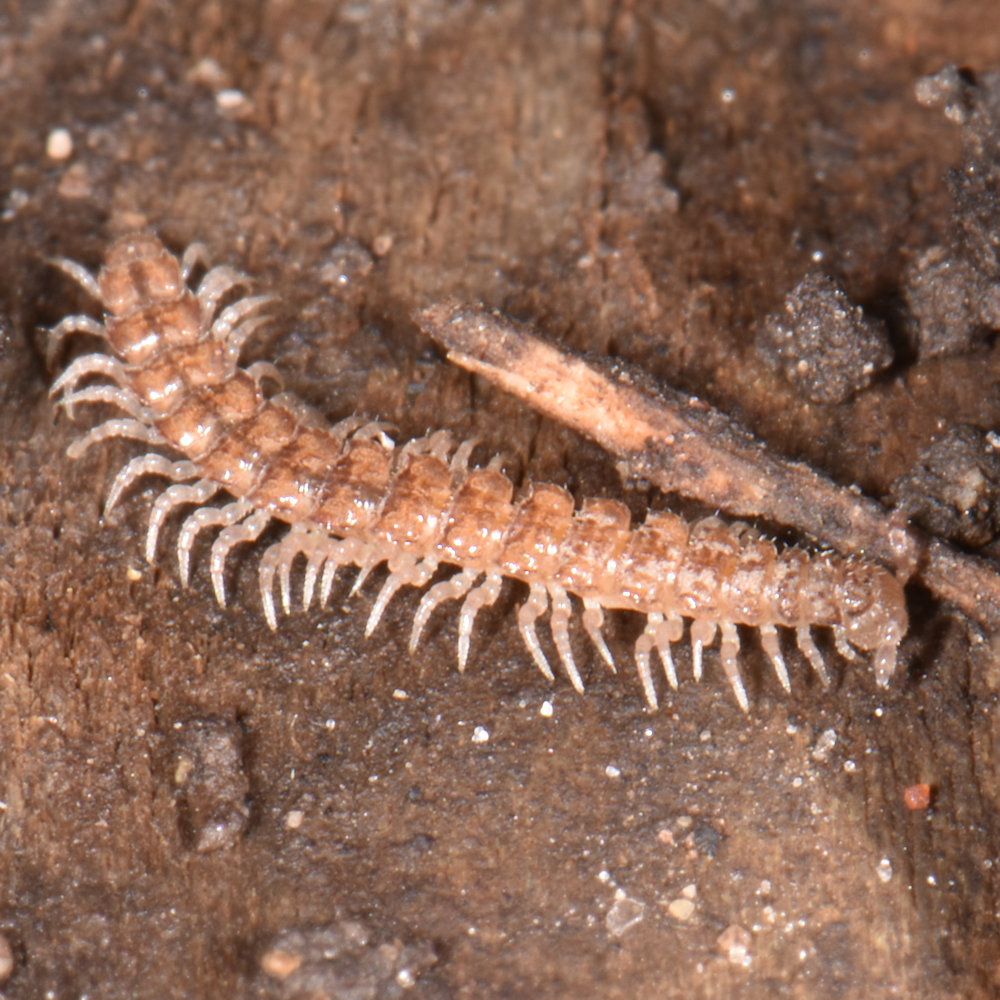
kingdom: Animalia
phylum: Arthropoda
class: Diplopoda
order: Polydesmida
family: Polydesmidae
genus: Scytonotus
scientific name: Scytonotus granulatus
